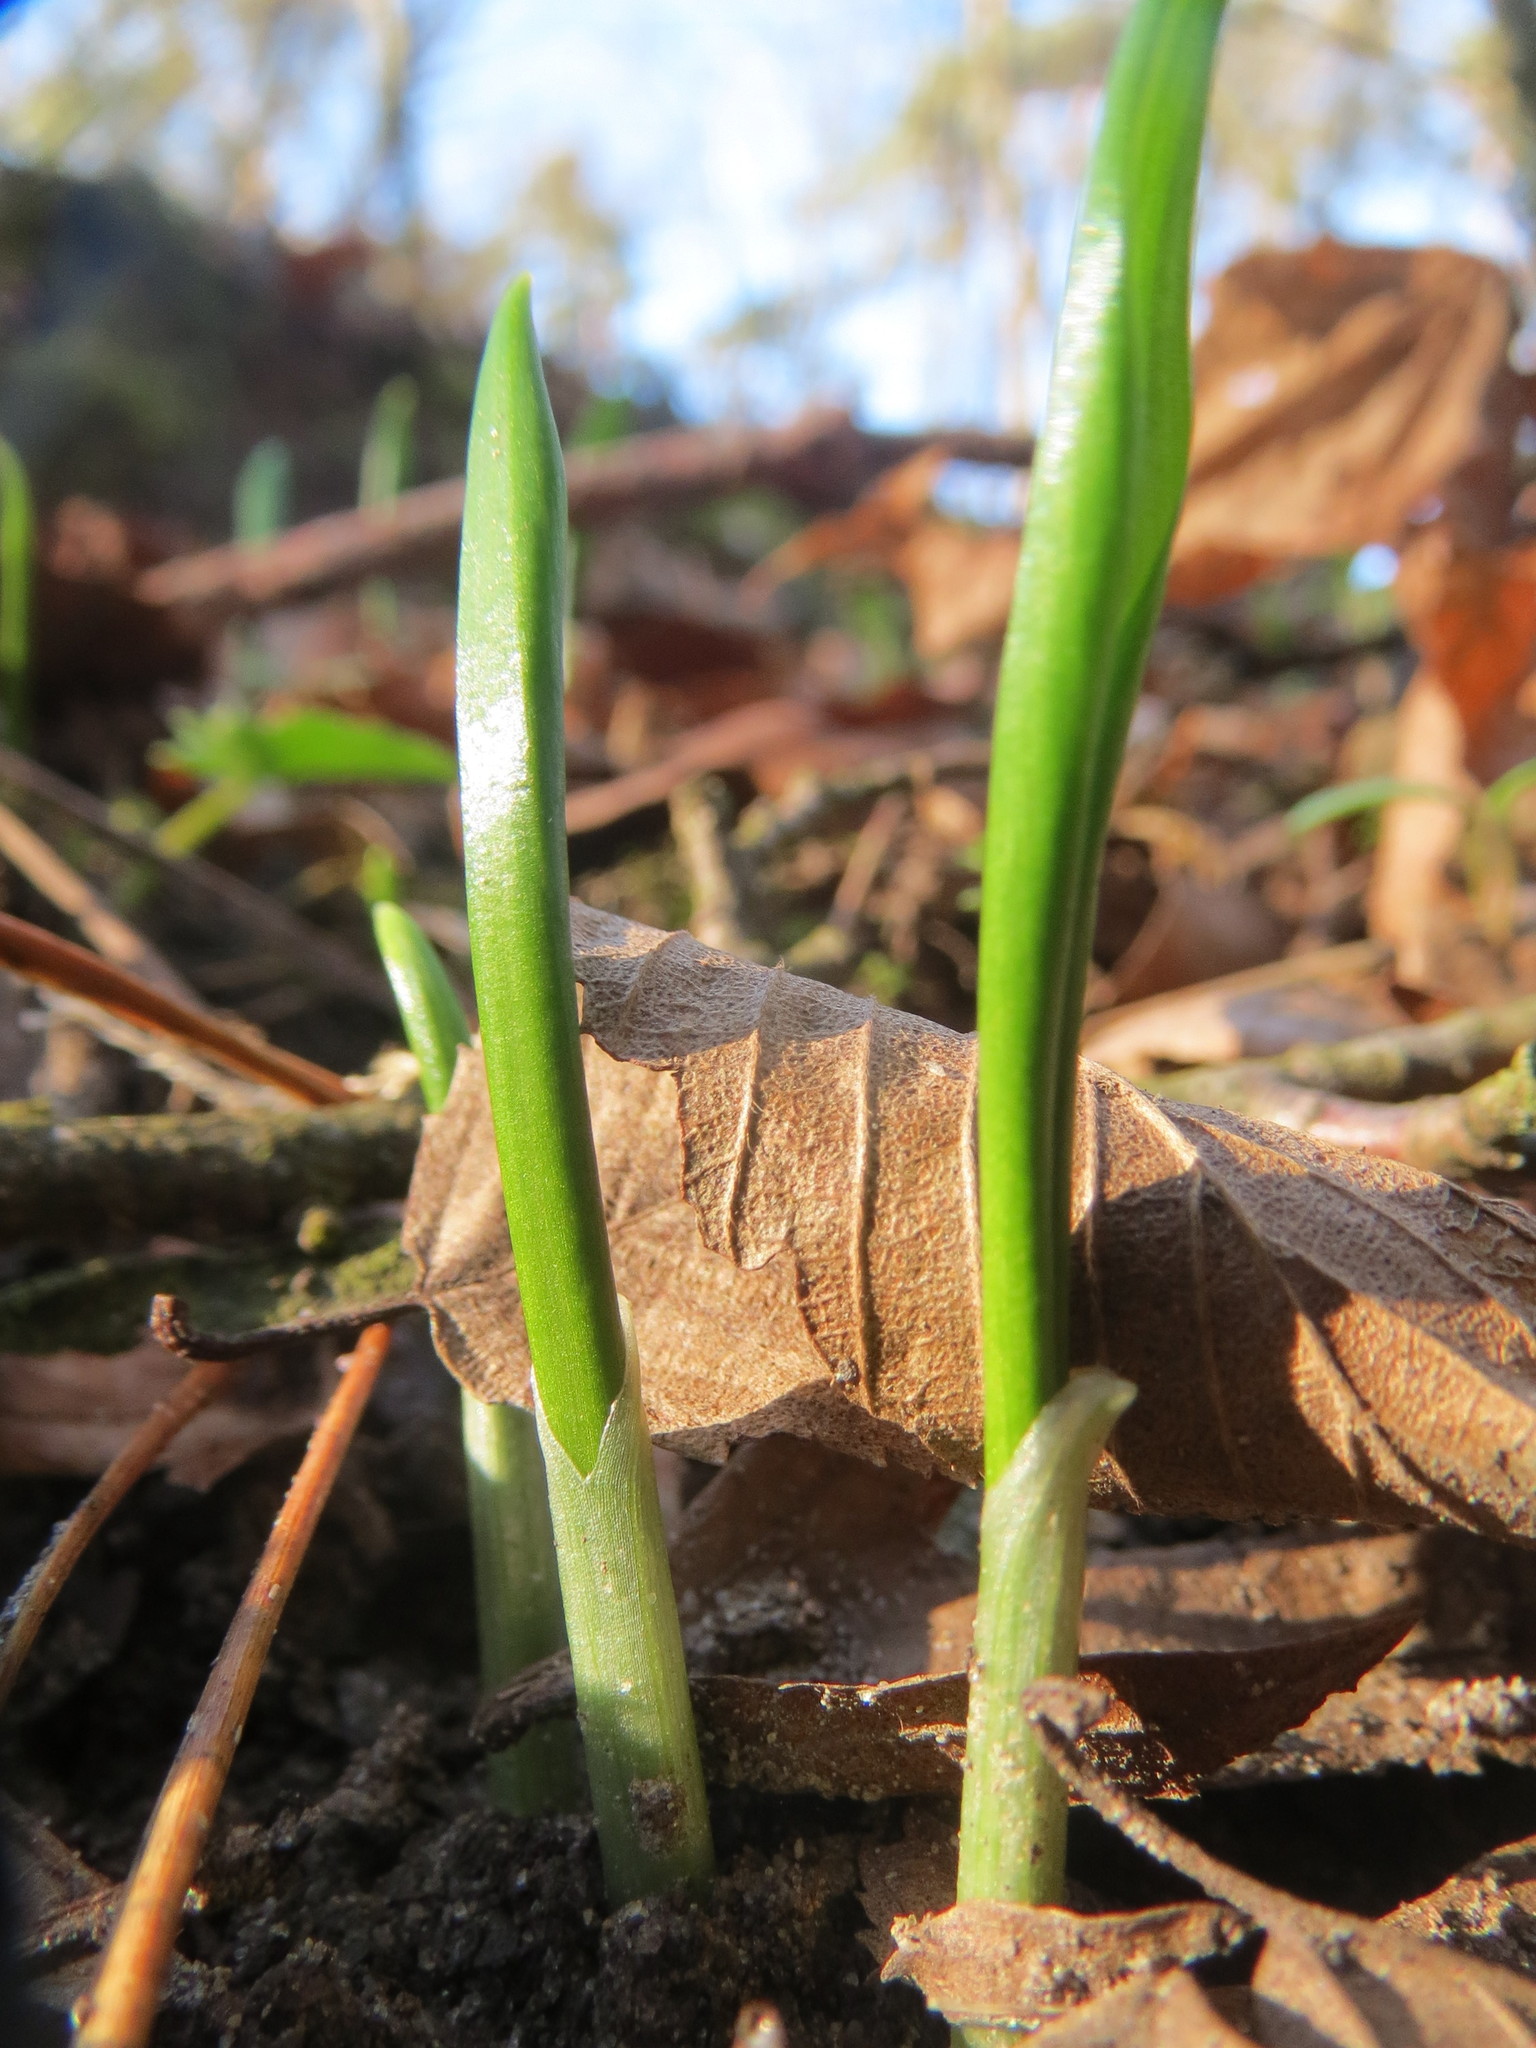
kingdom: Plantae
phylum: Tracheophyta
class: Liliopsida
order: Asparagales
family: Amaryllidaceae
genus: Allium
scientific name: Allium ursinum
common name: Ramsons
